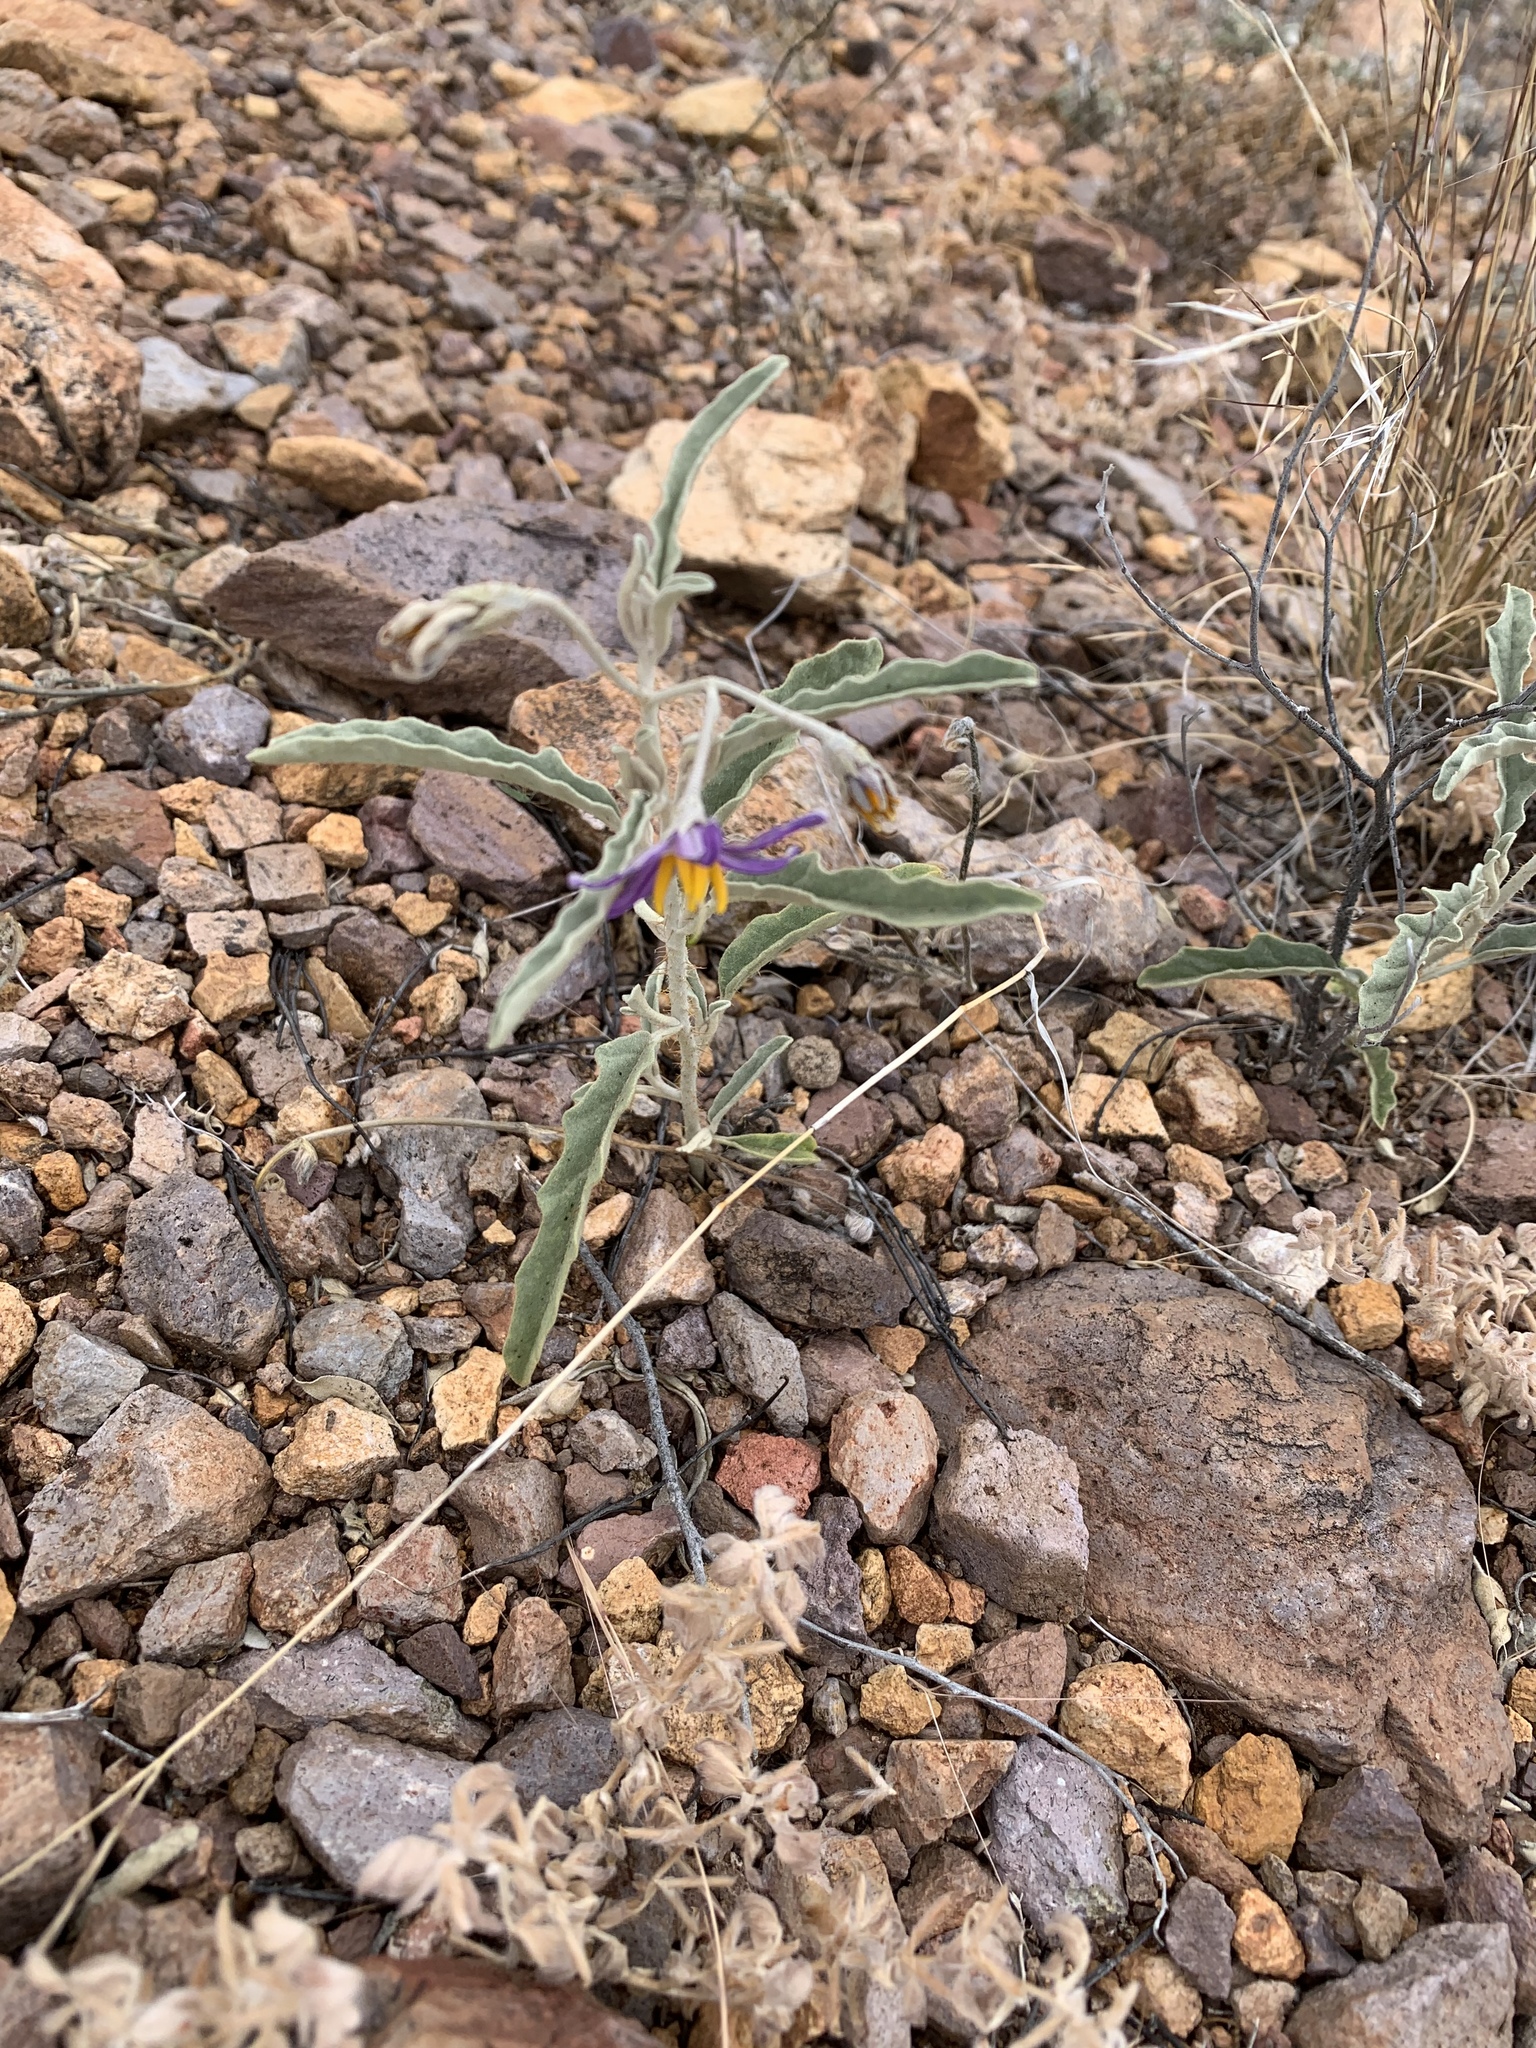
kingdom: Plantae
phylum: Tracheophyta
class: Magnoliopsida
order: Solanales
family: Solanaceae
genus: Solanum
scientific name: Solanum elaeagnifolium
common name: Silverleaf nightshade
